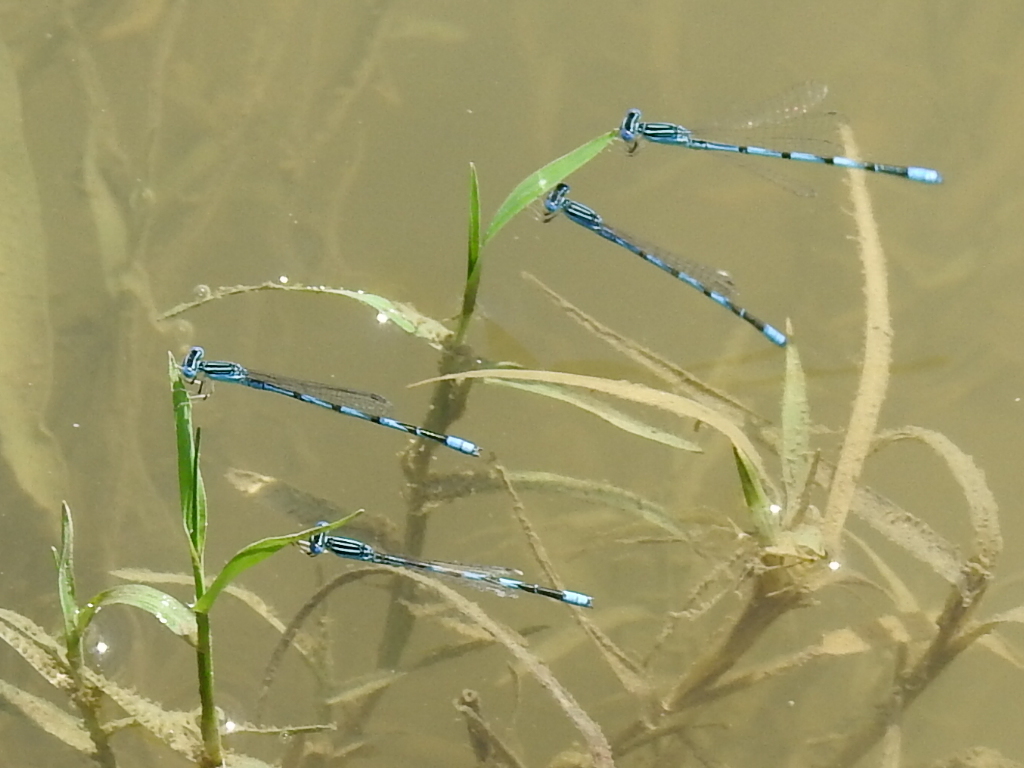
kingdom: Animalia
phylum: Arthropoda
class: Insecta
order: Odonata
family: Coenagrionidae
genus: Enallagma
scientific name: Enallagma basidens
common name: Double-striped bluet
